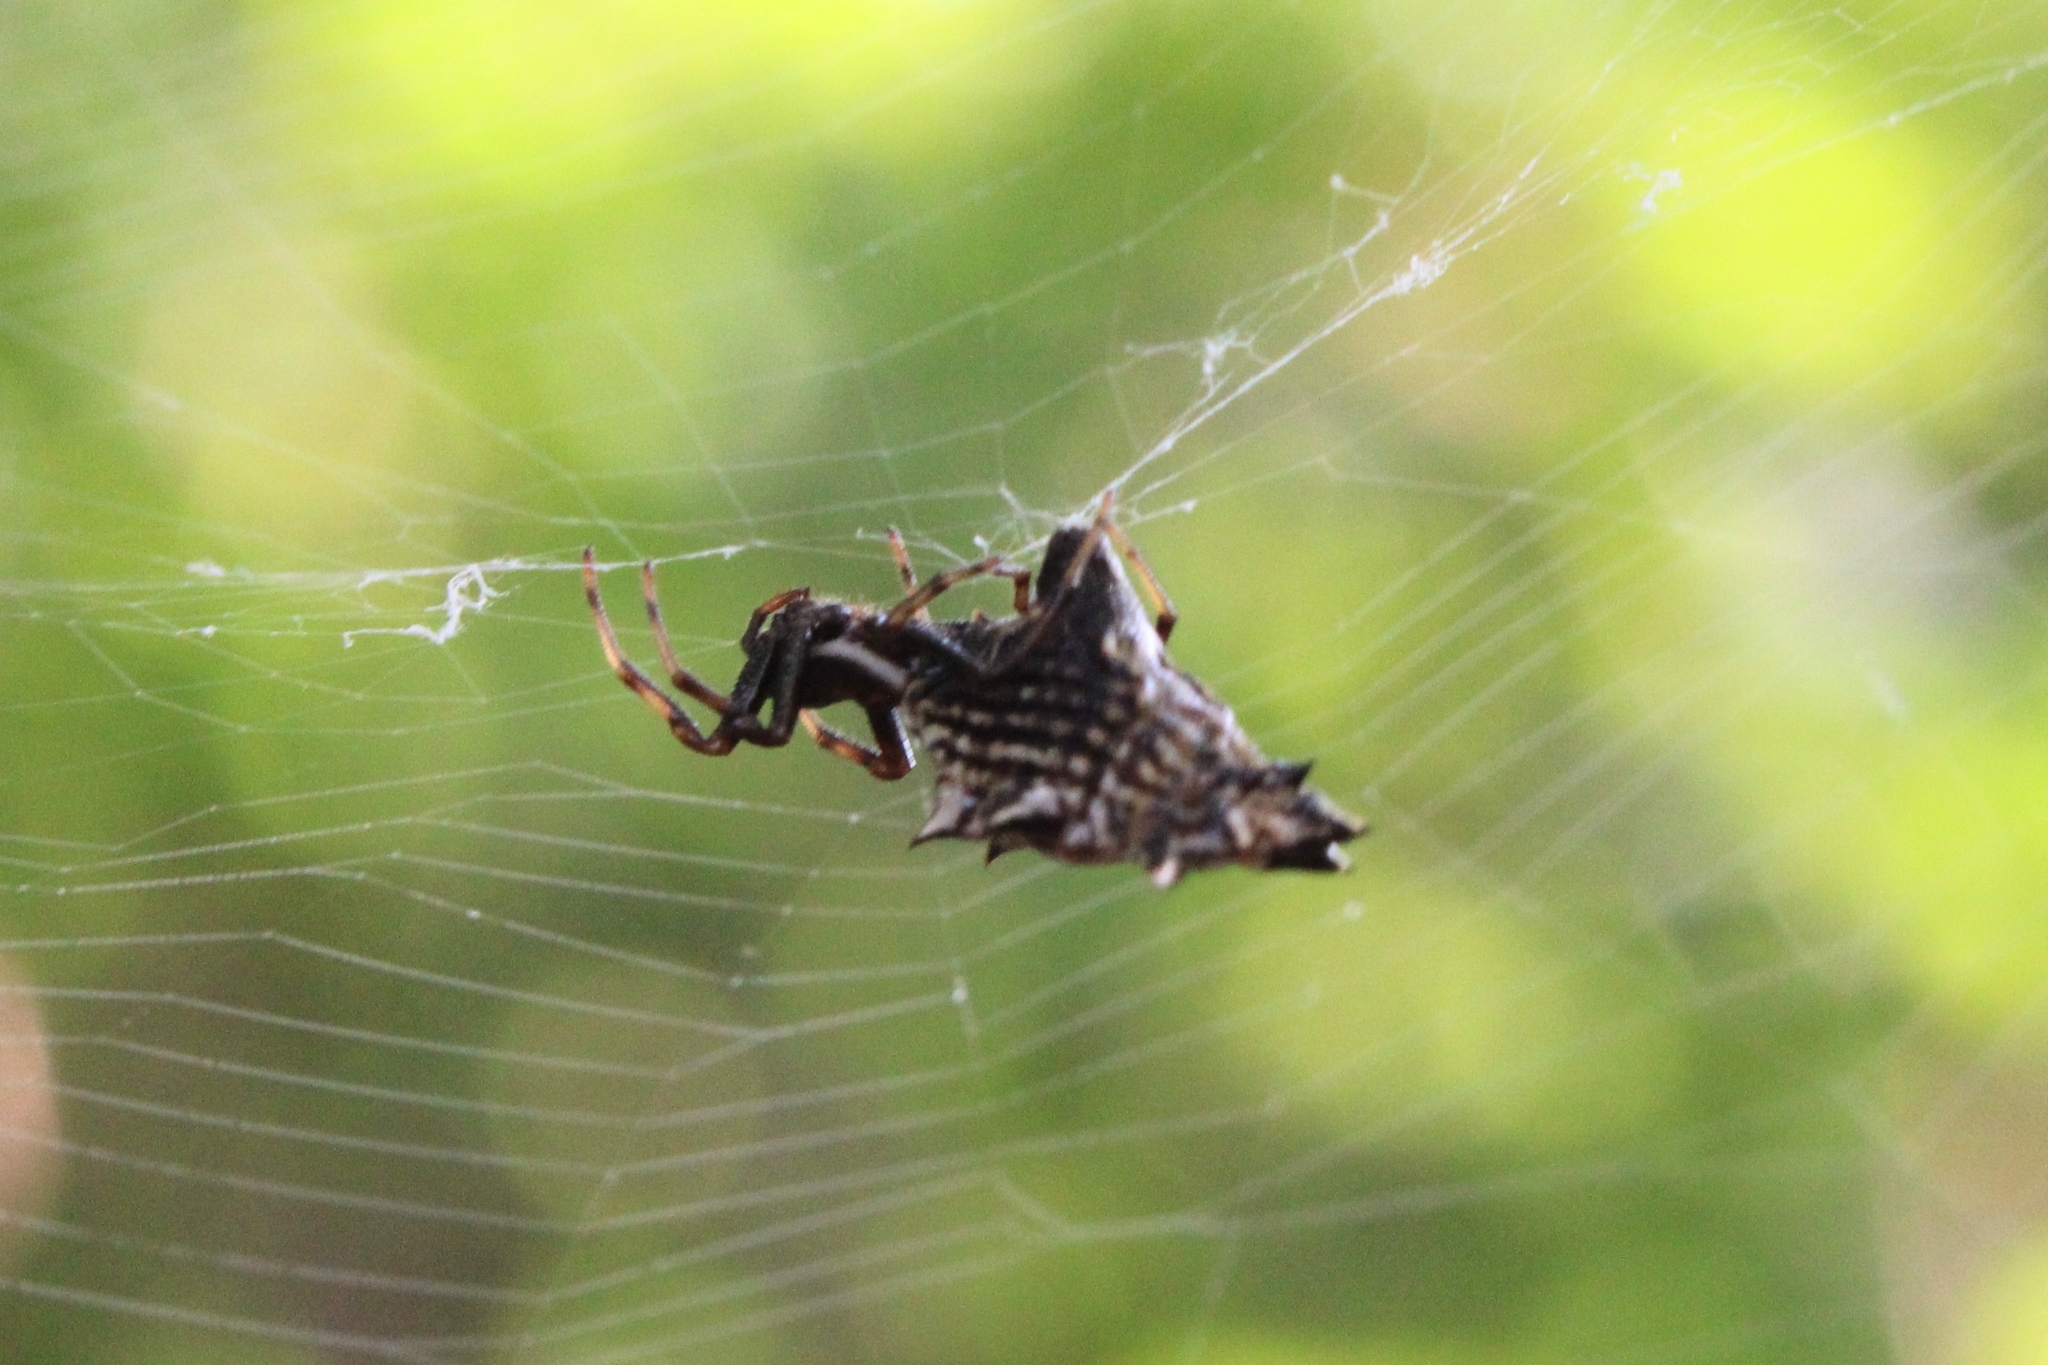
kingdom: Animalia
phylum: Arthropoda
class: Arachnida
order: Araneae
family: Araneidae
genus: Micrathena
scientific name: Micrathena gracilis
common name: Orb weavers
